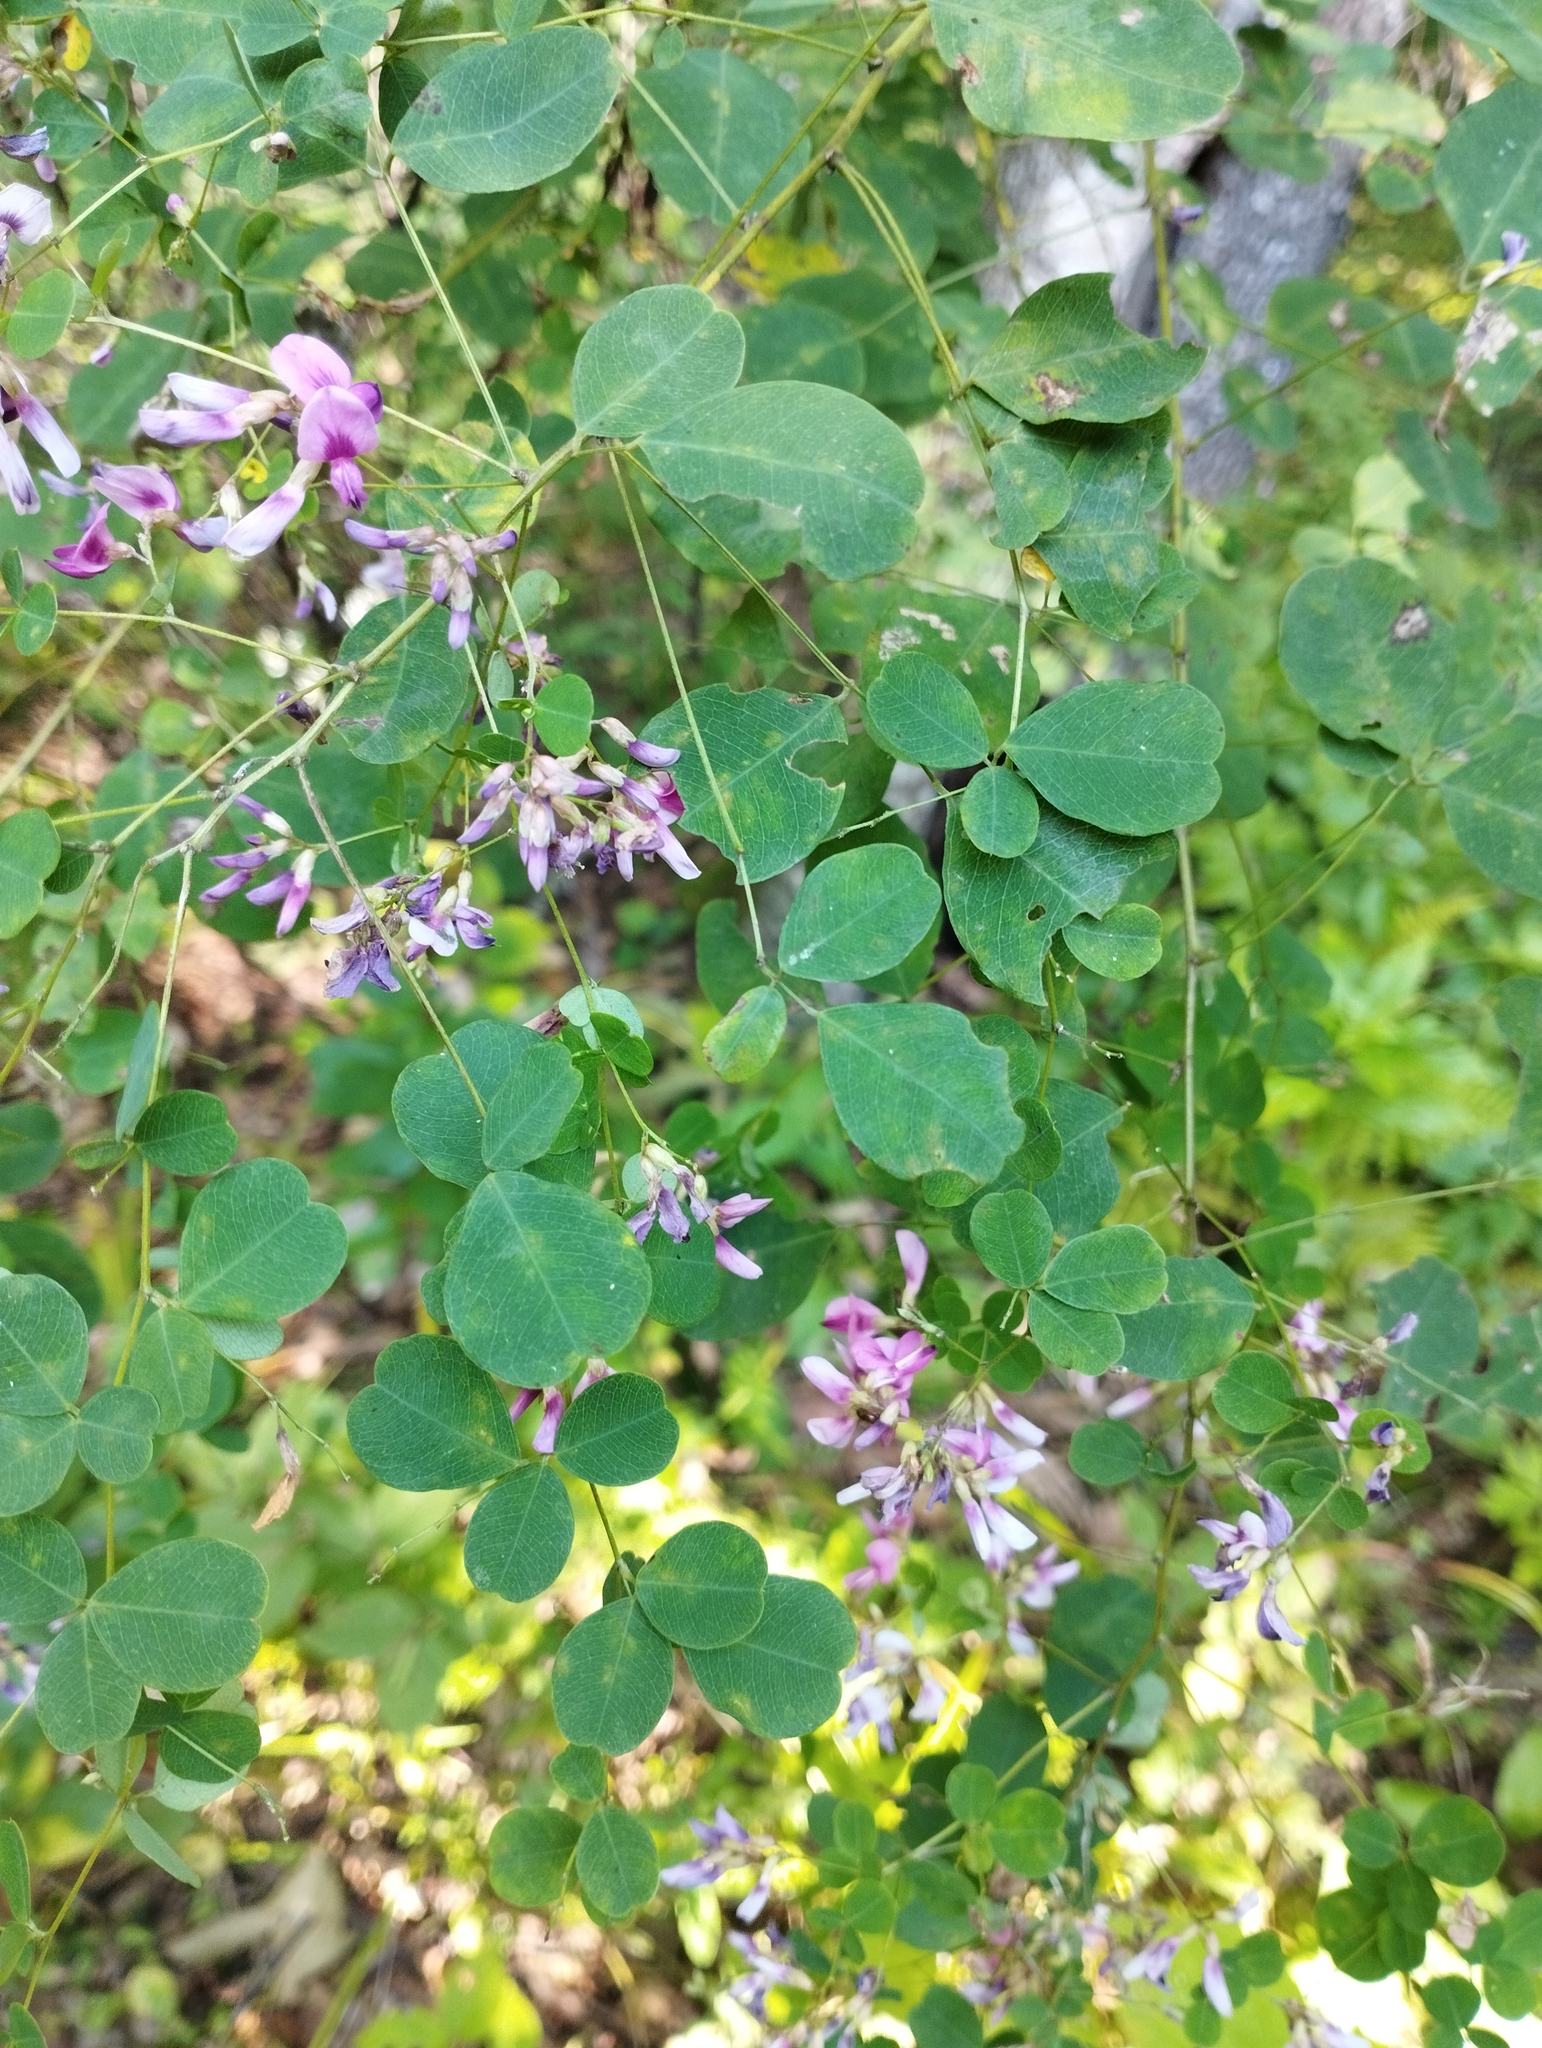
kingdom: Plantae
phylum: Tracheophyta
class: Magnoliopsida
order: Fabales
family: Fabaceae
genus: Lespedeza
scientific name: Lespedeza bicolor
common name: Shrub lespedeza
